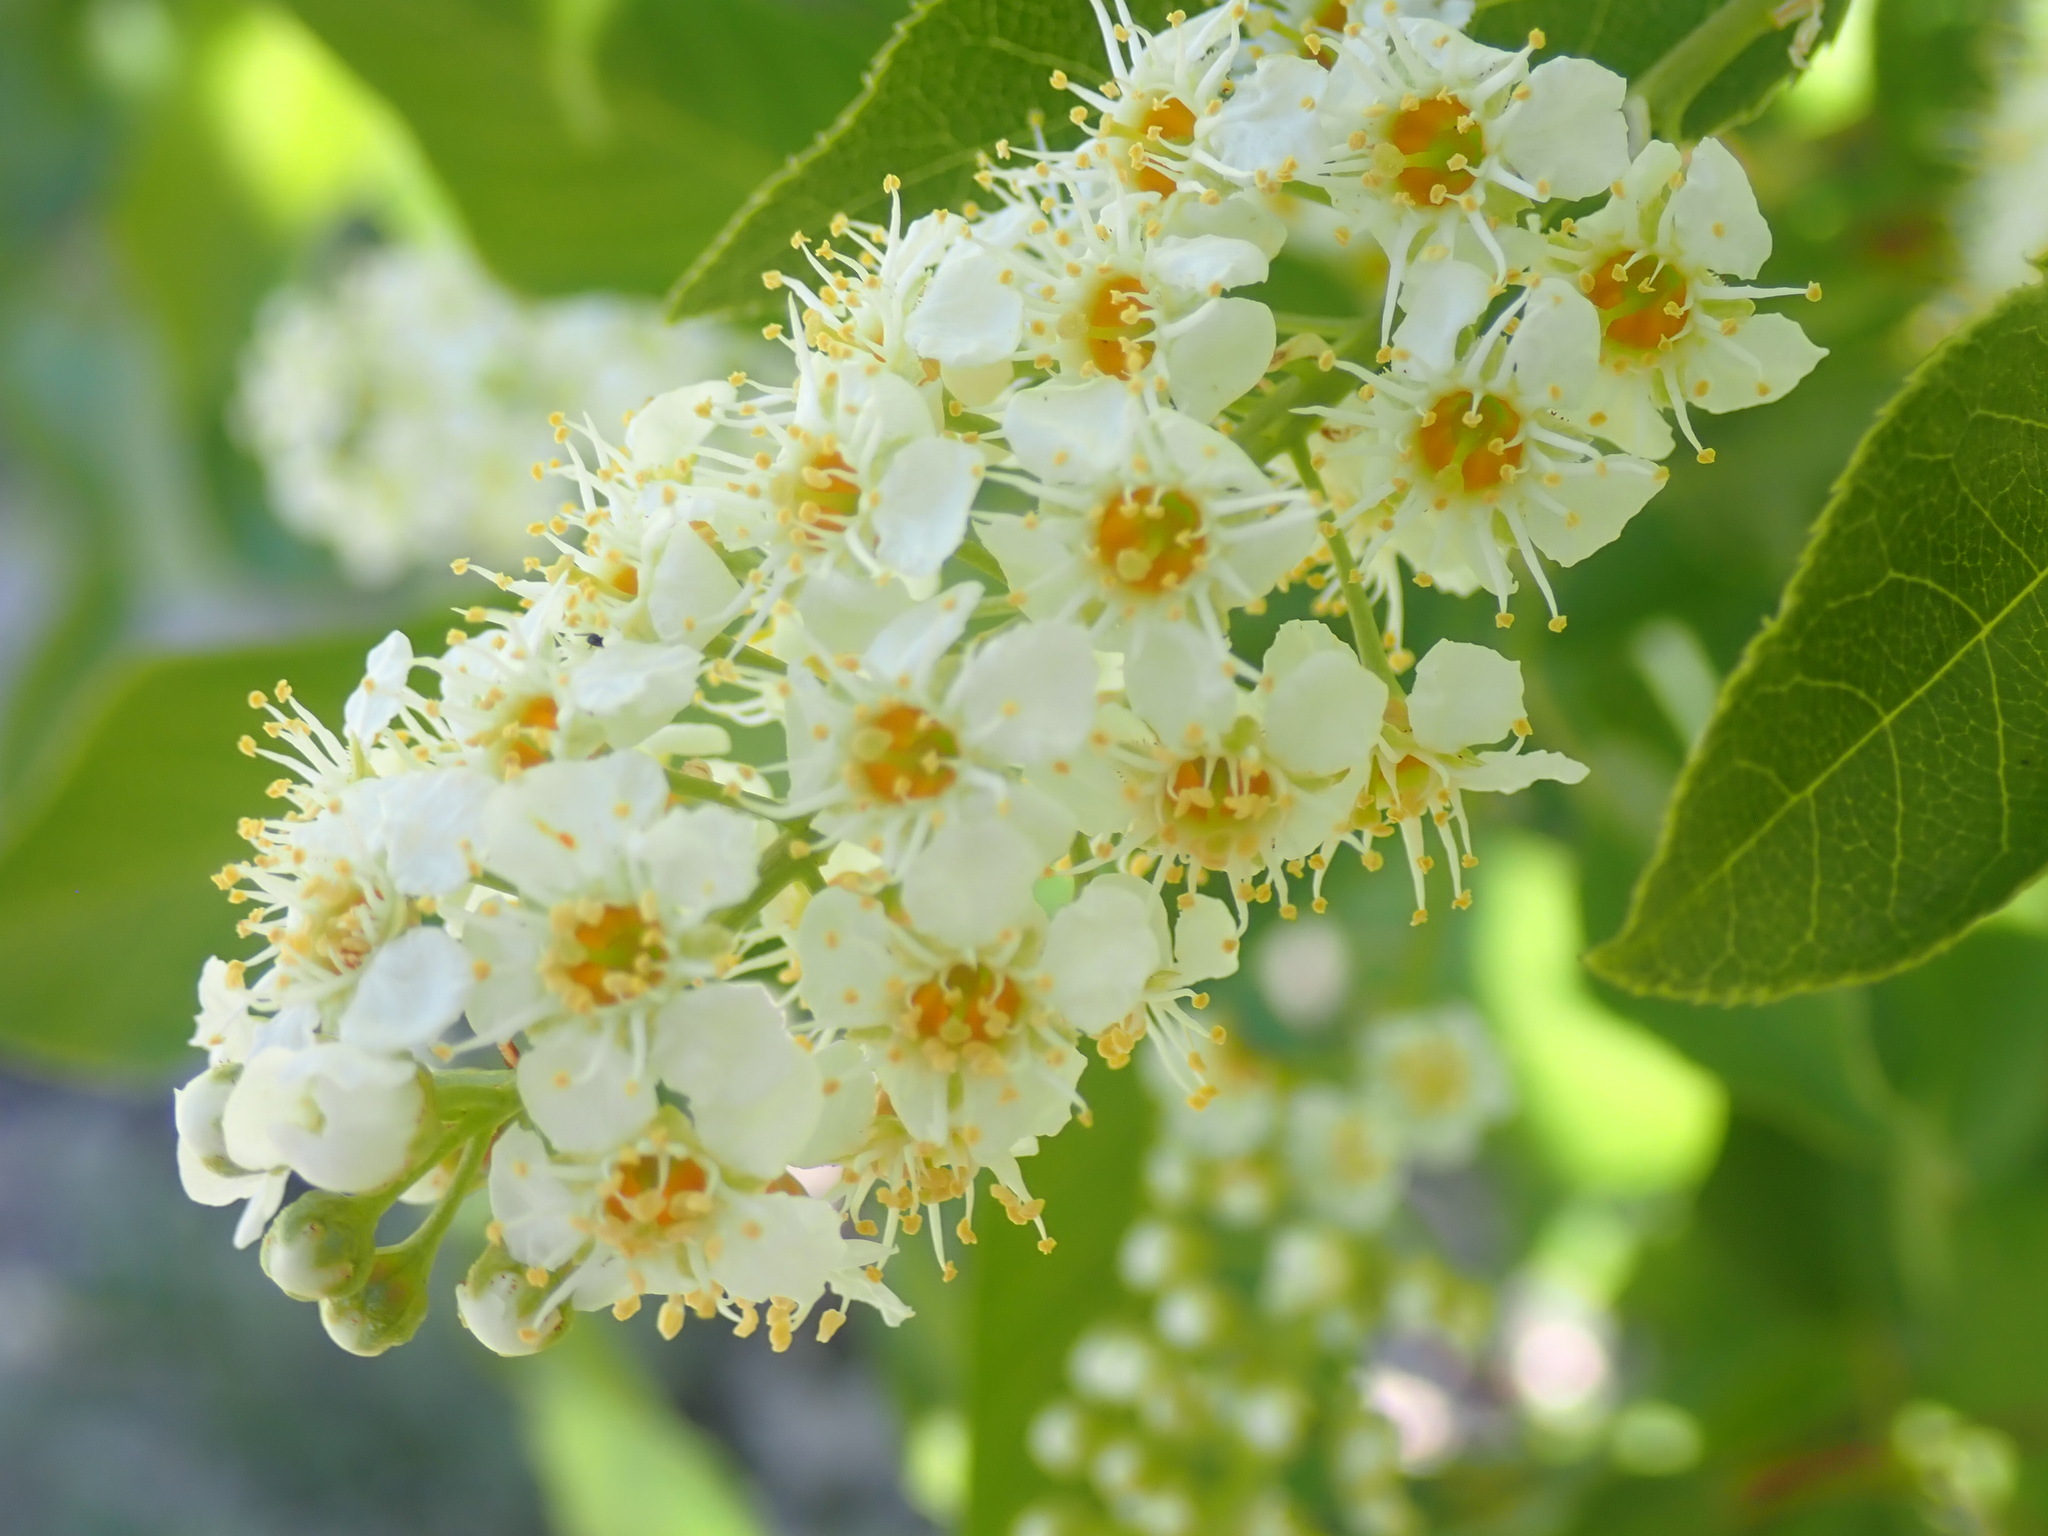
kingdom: Plantae
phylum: Tracheophyta
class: Magnoliopsida
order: Rosales
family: Rosaceae
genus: Prunus
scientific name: Prunus virginiana
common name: Chokecherry
